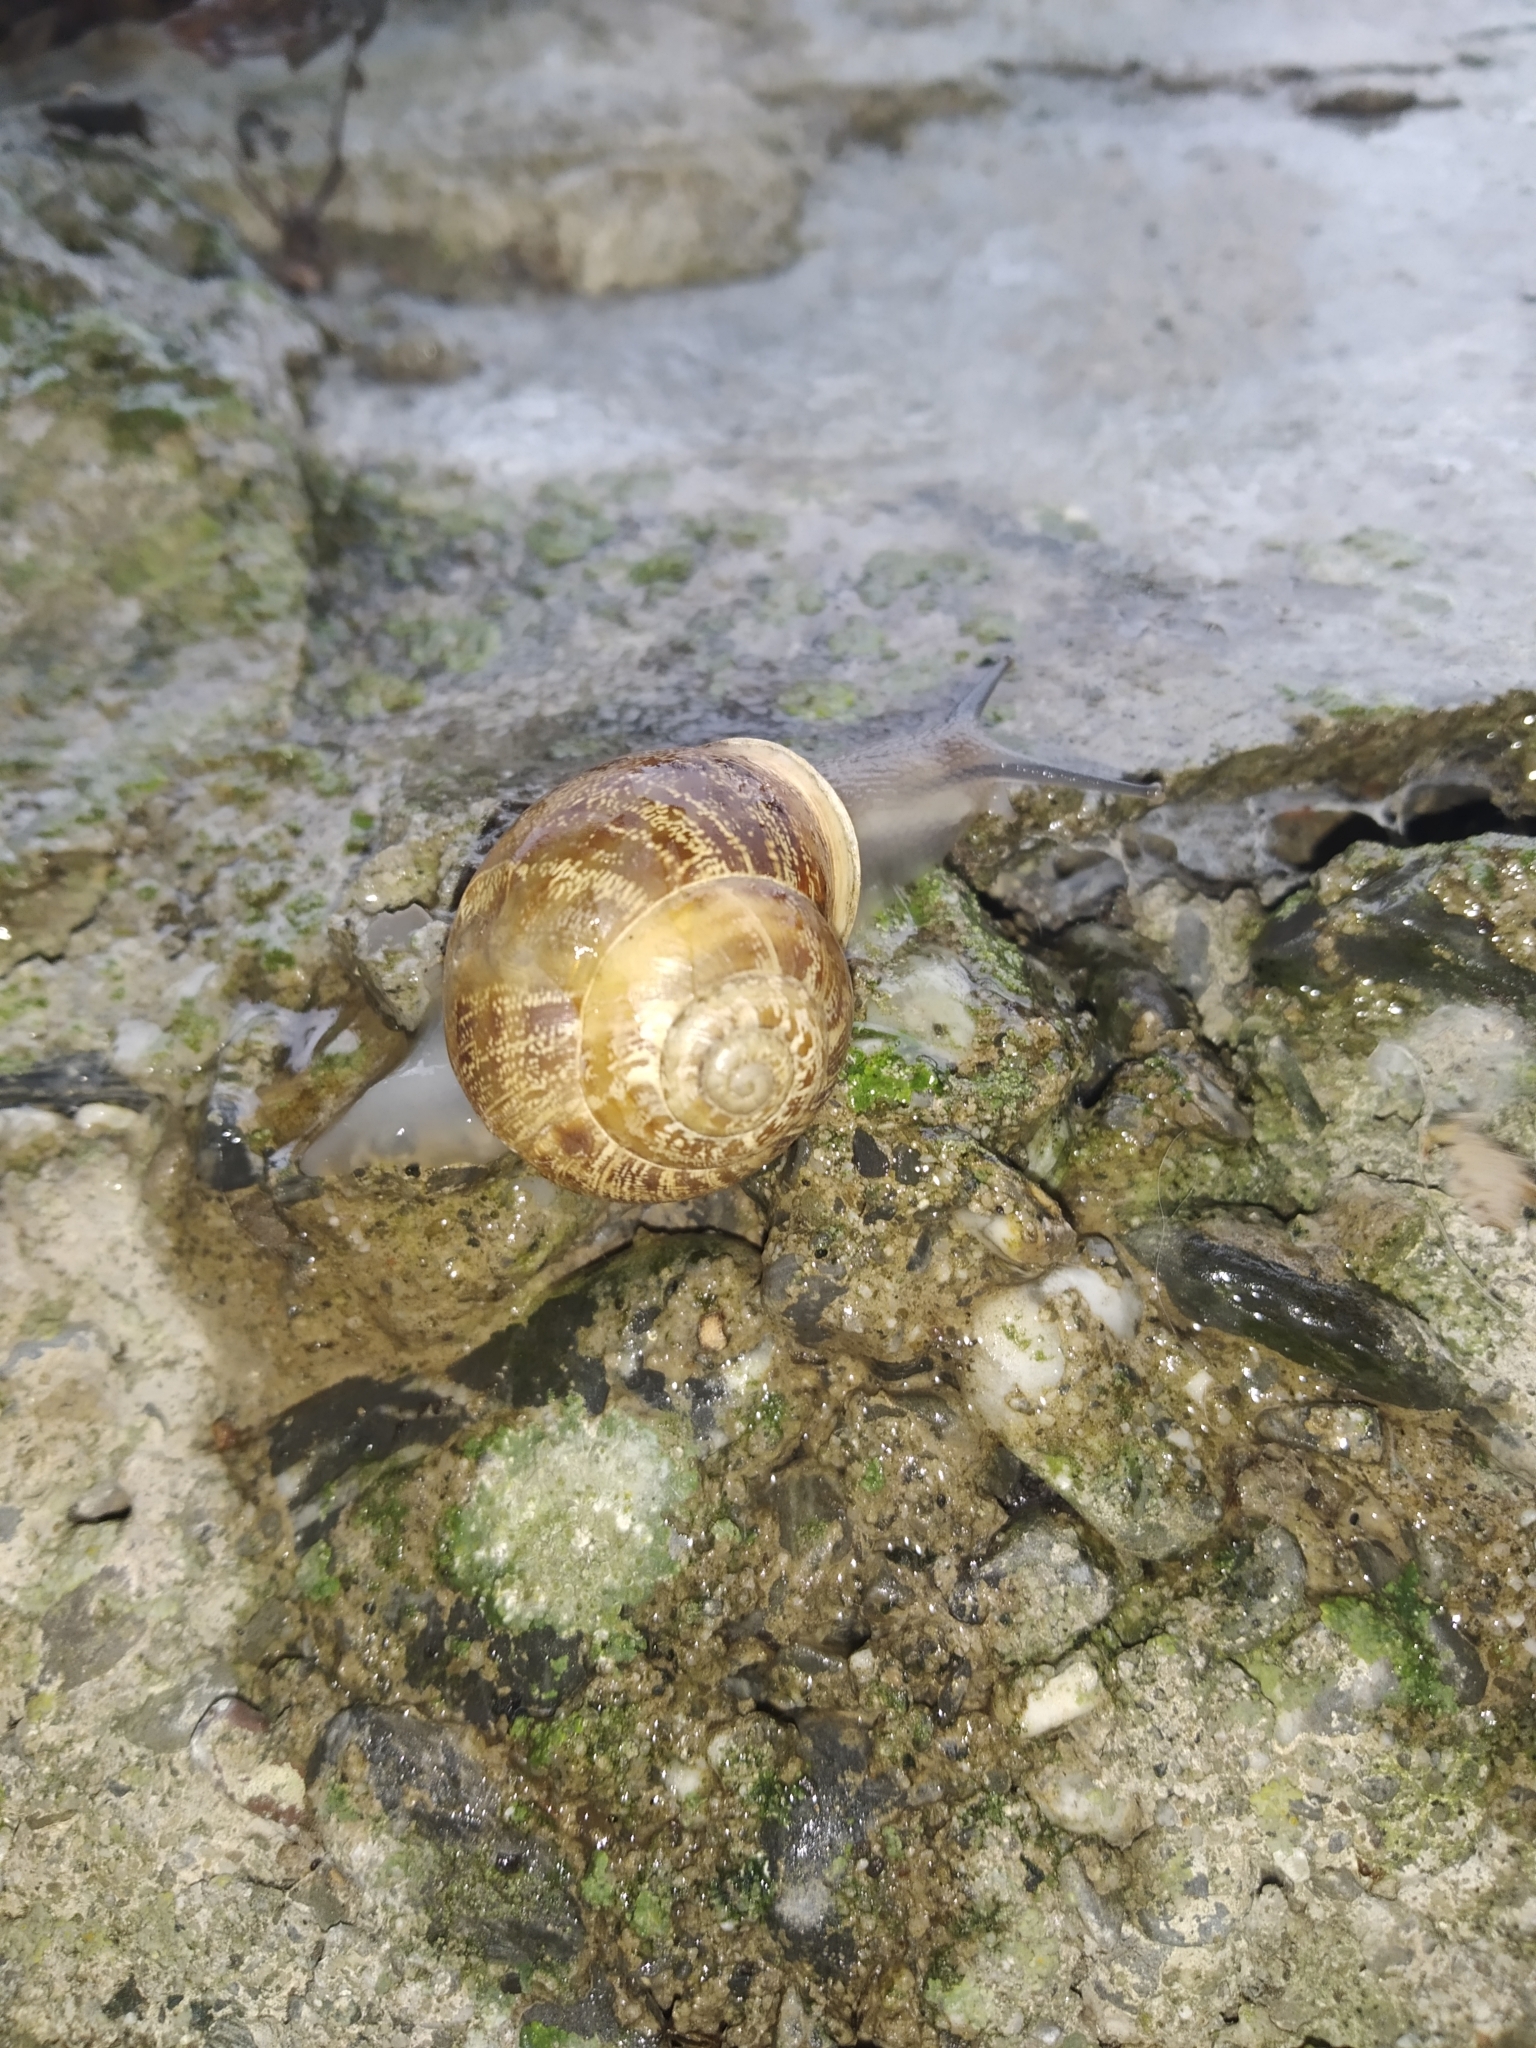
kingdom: Animalia
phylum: Mollusca
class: Gastropoda
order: Stylommatophora
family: Helicidae
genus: Cornu
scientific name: Cornu aspersum
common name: Brown garden snail
